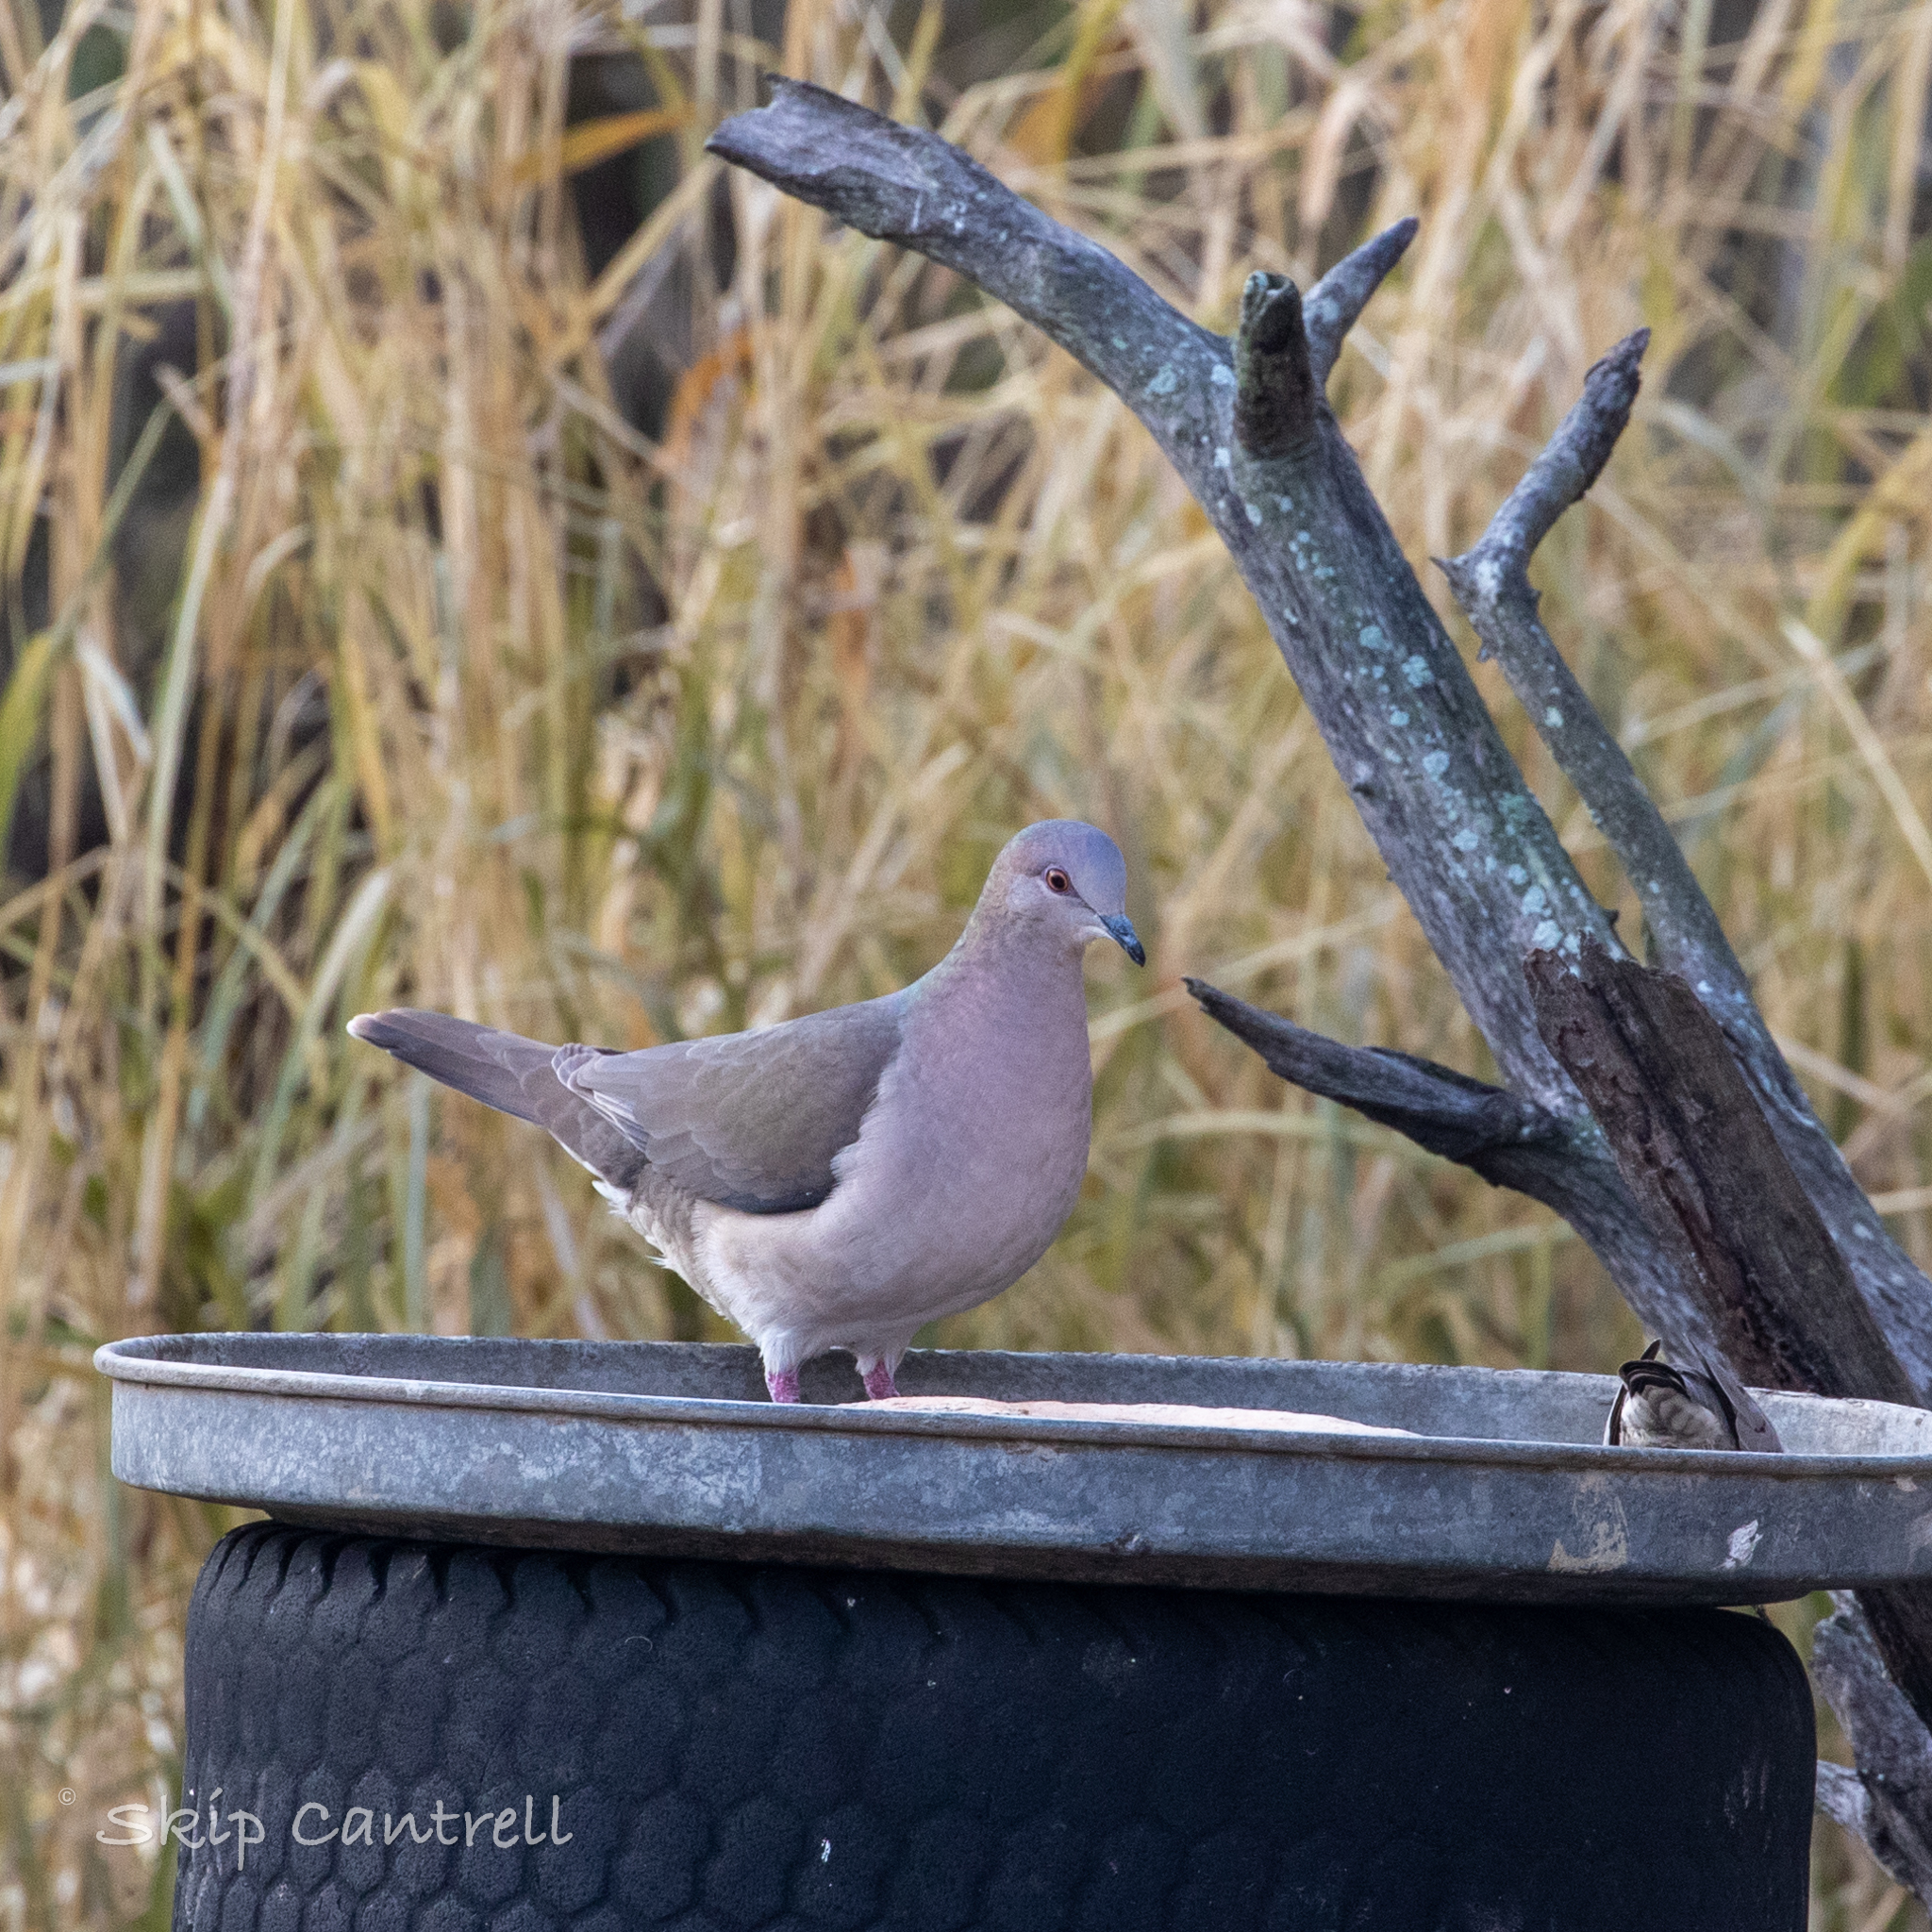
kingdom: Animalia
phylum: Chordata
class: Aves
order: Columbiformes
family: Columbidae
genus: Leptotila
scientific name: Leptotila verreauxi
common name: White-tipped dove
